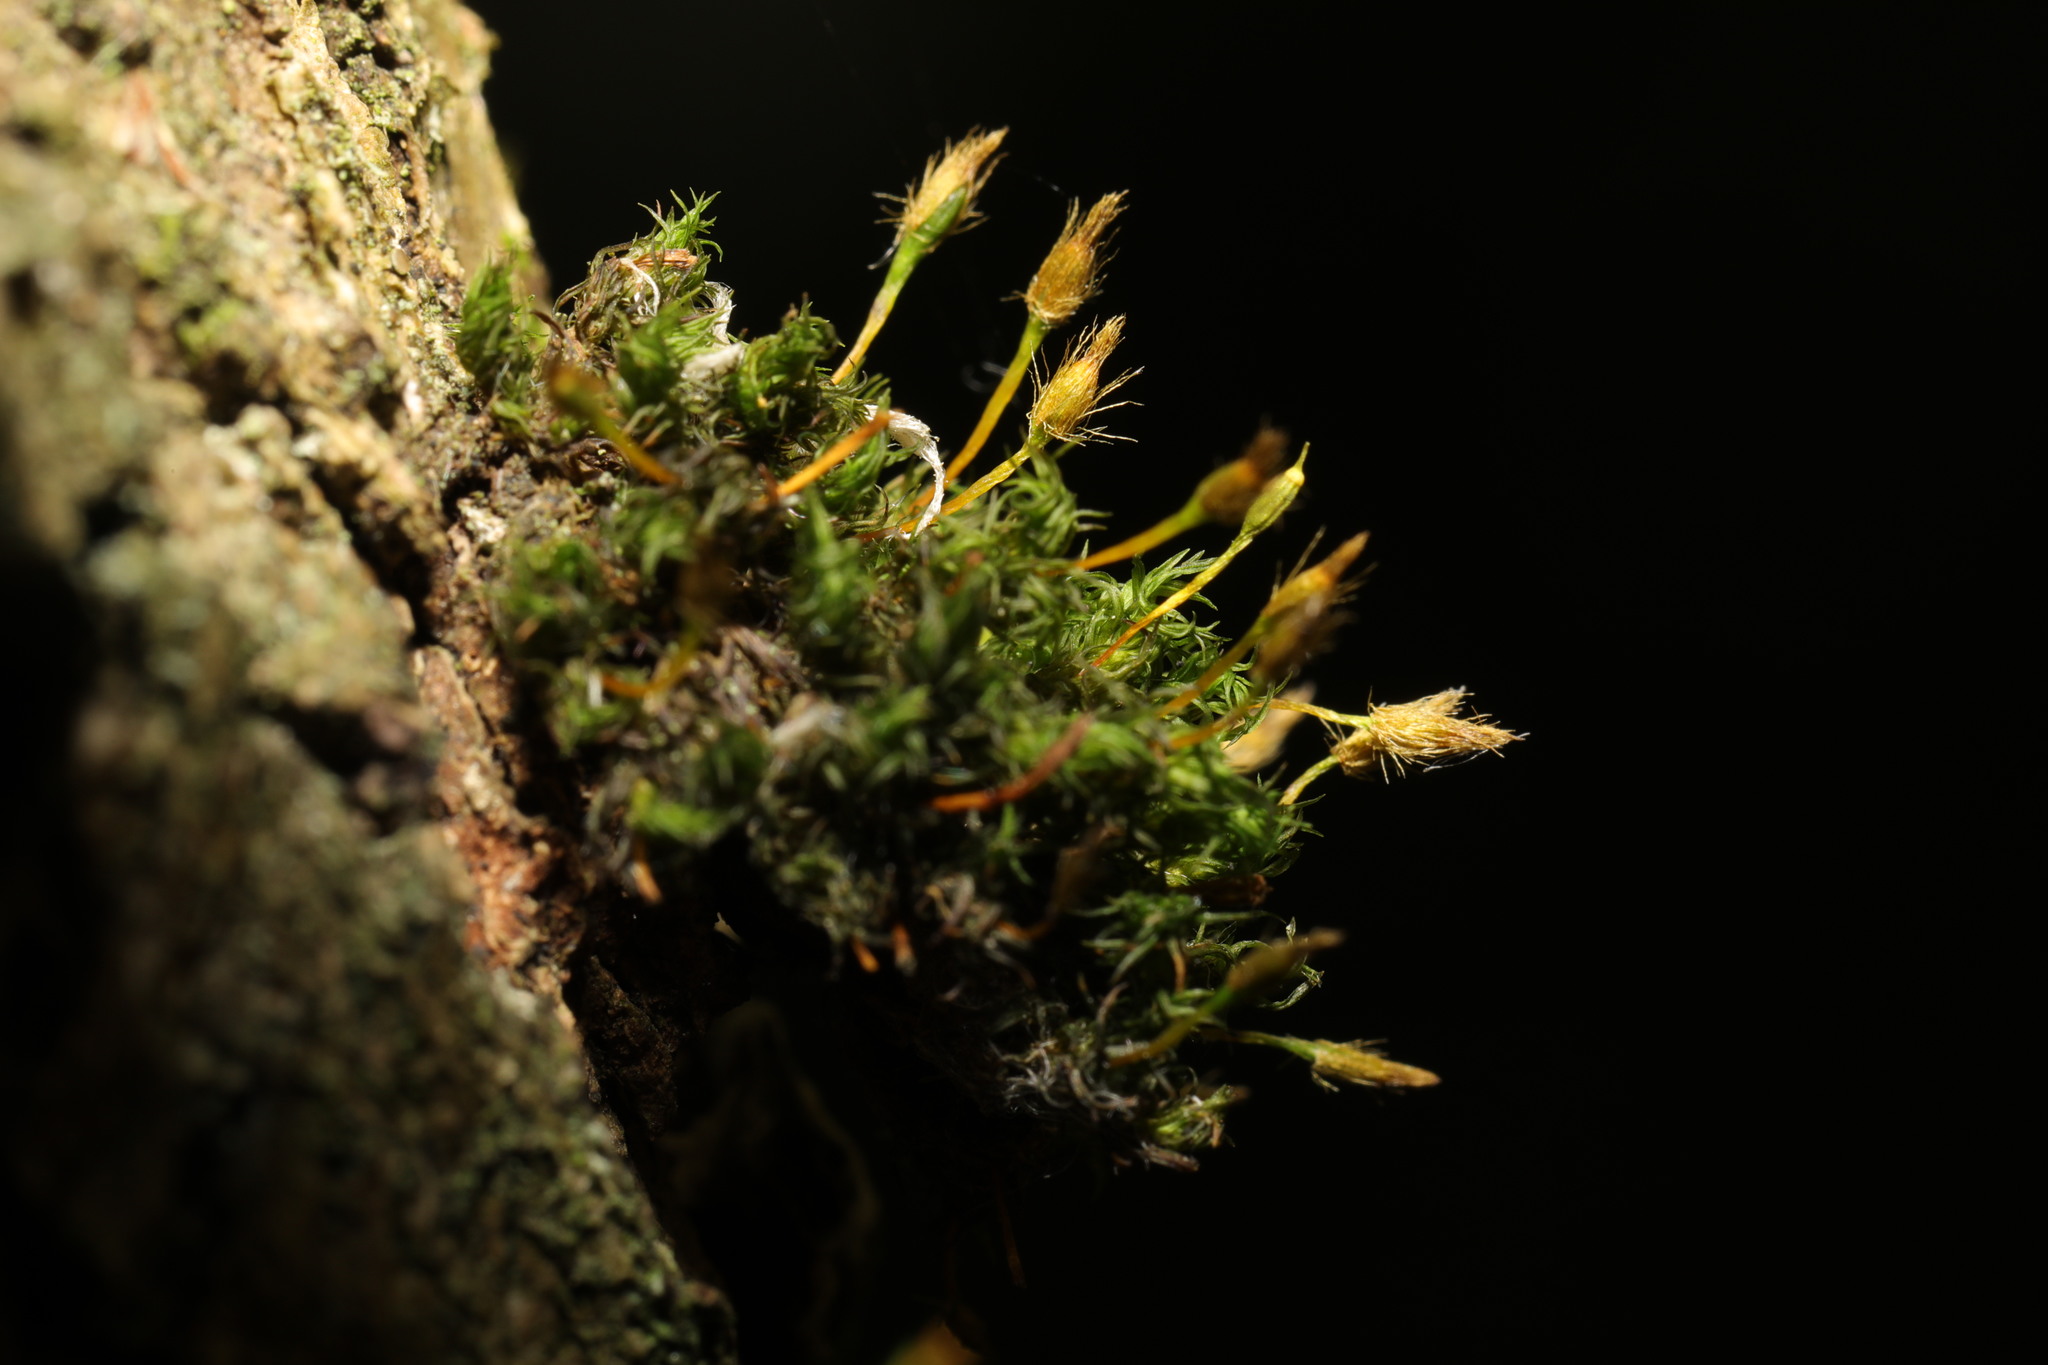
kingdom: Plantae
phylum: Bryophyta
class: Bryopsida
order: Orthotrichales
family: Orthotrichaceae
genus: Ulota
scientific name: Ulota bruchii
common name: Bruch's pincushion
